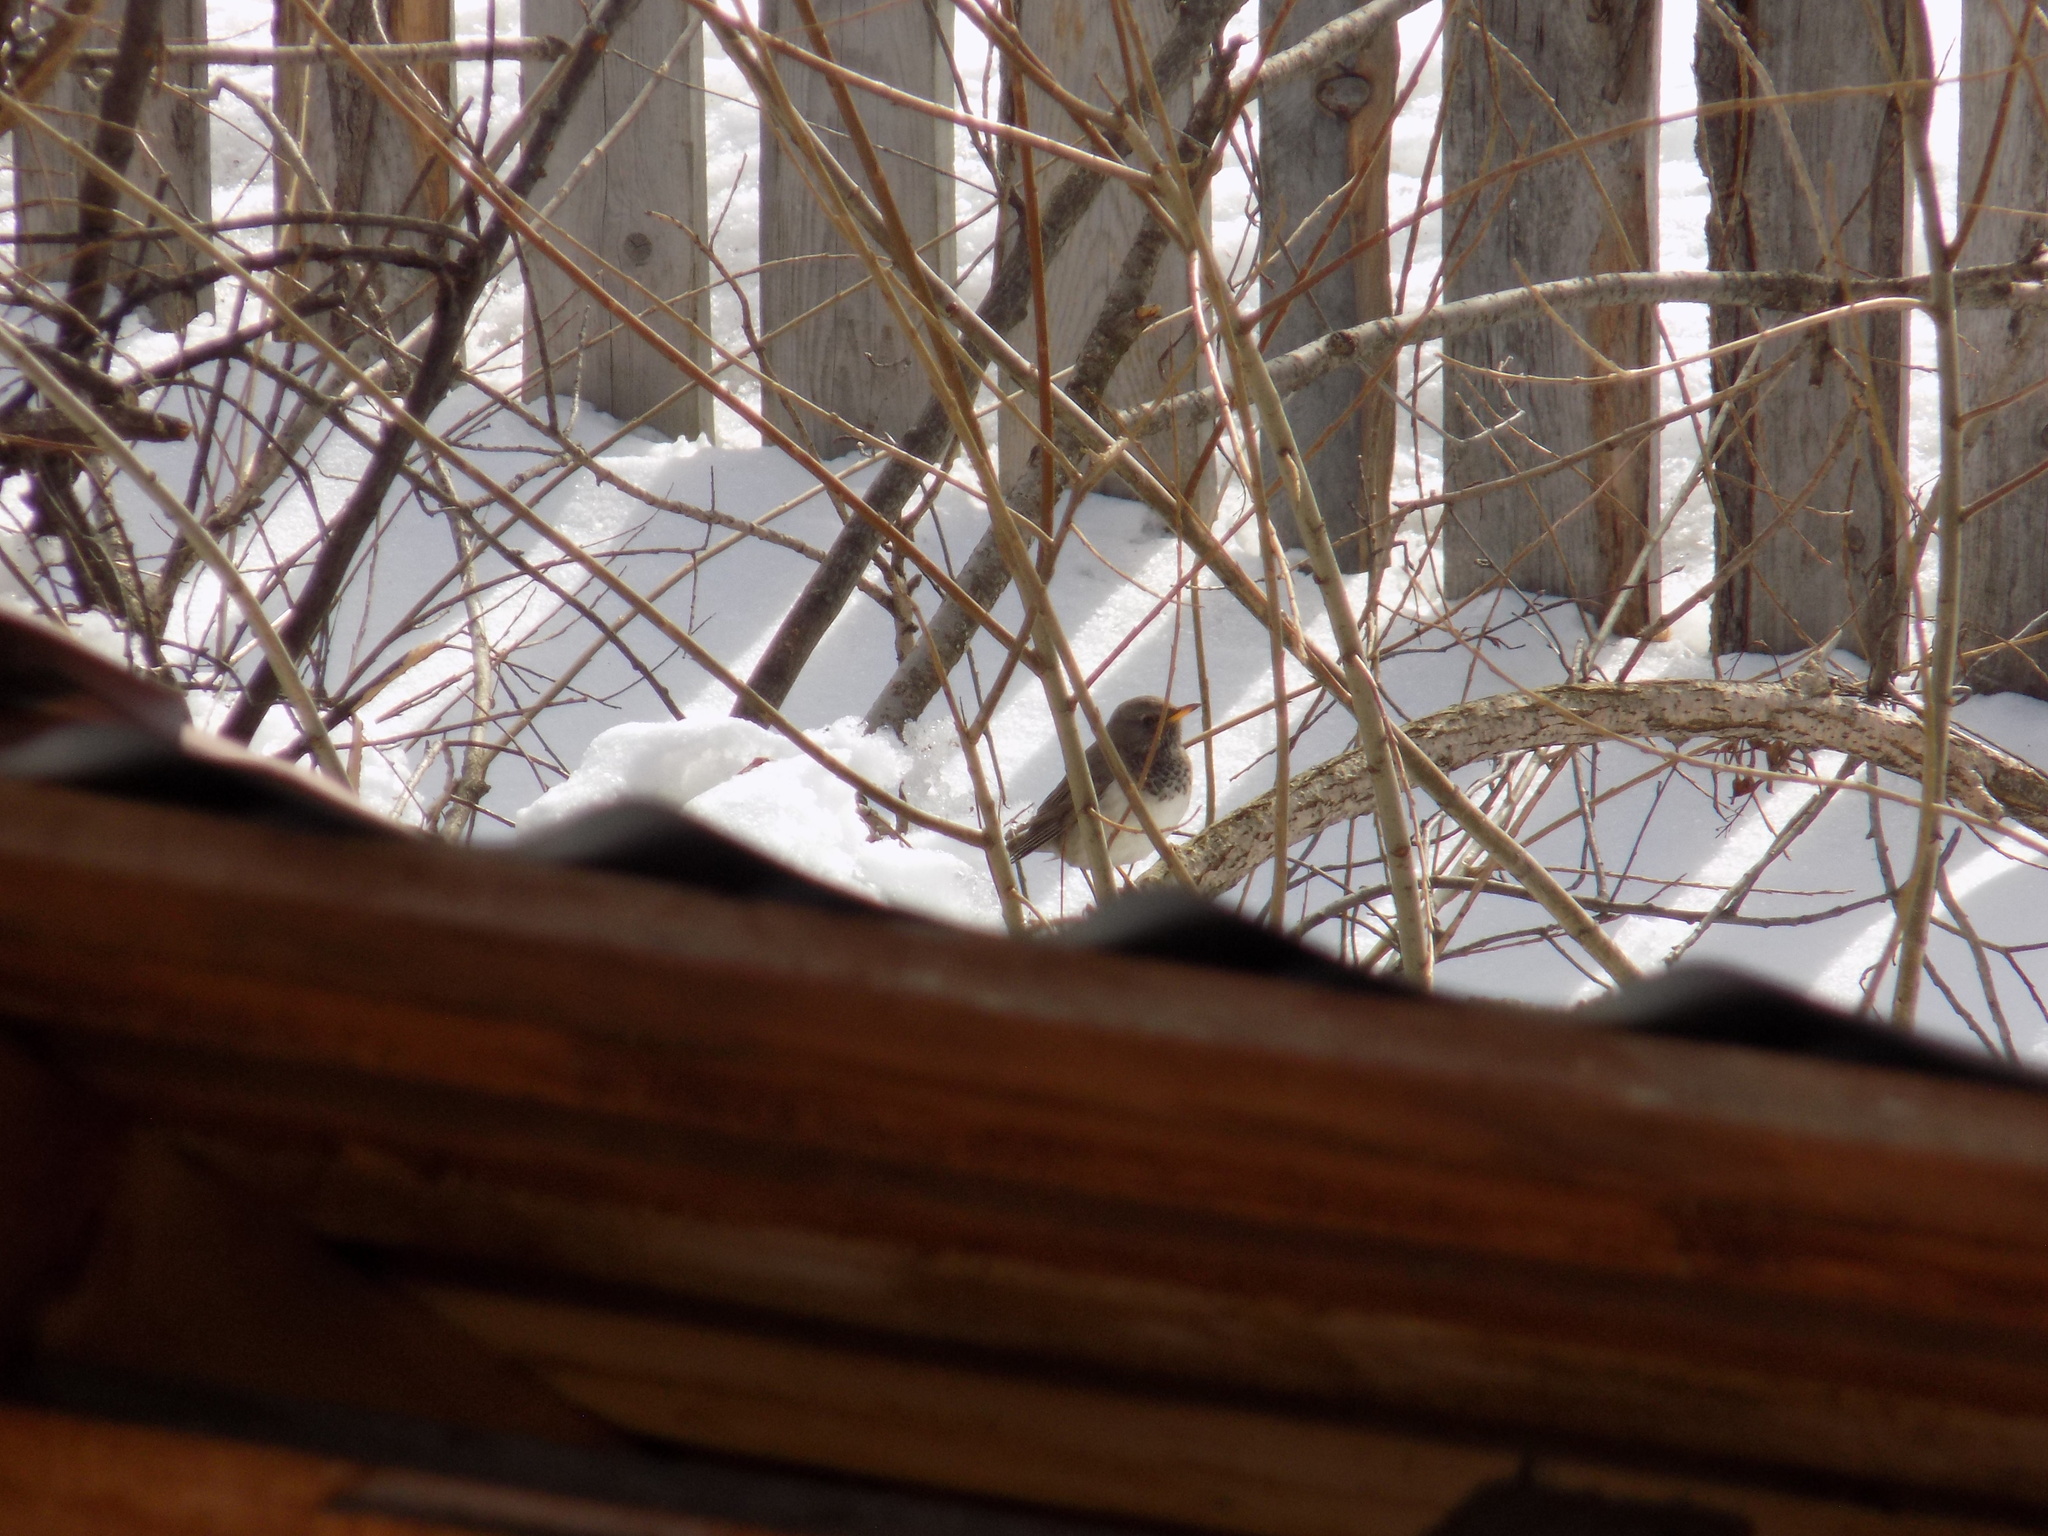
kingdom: Animalia
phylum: Chordata
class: Aves
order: Passeriformes
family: Turdidae
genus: Turdus
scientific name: Turdus atrogularis
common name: Black-throated thrush
